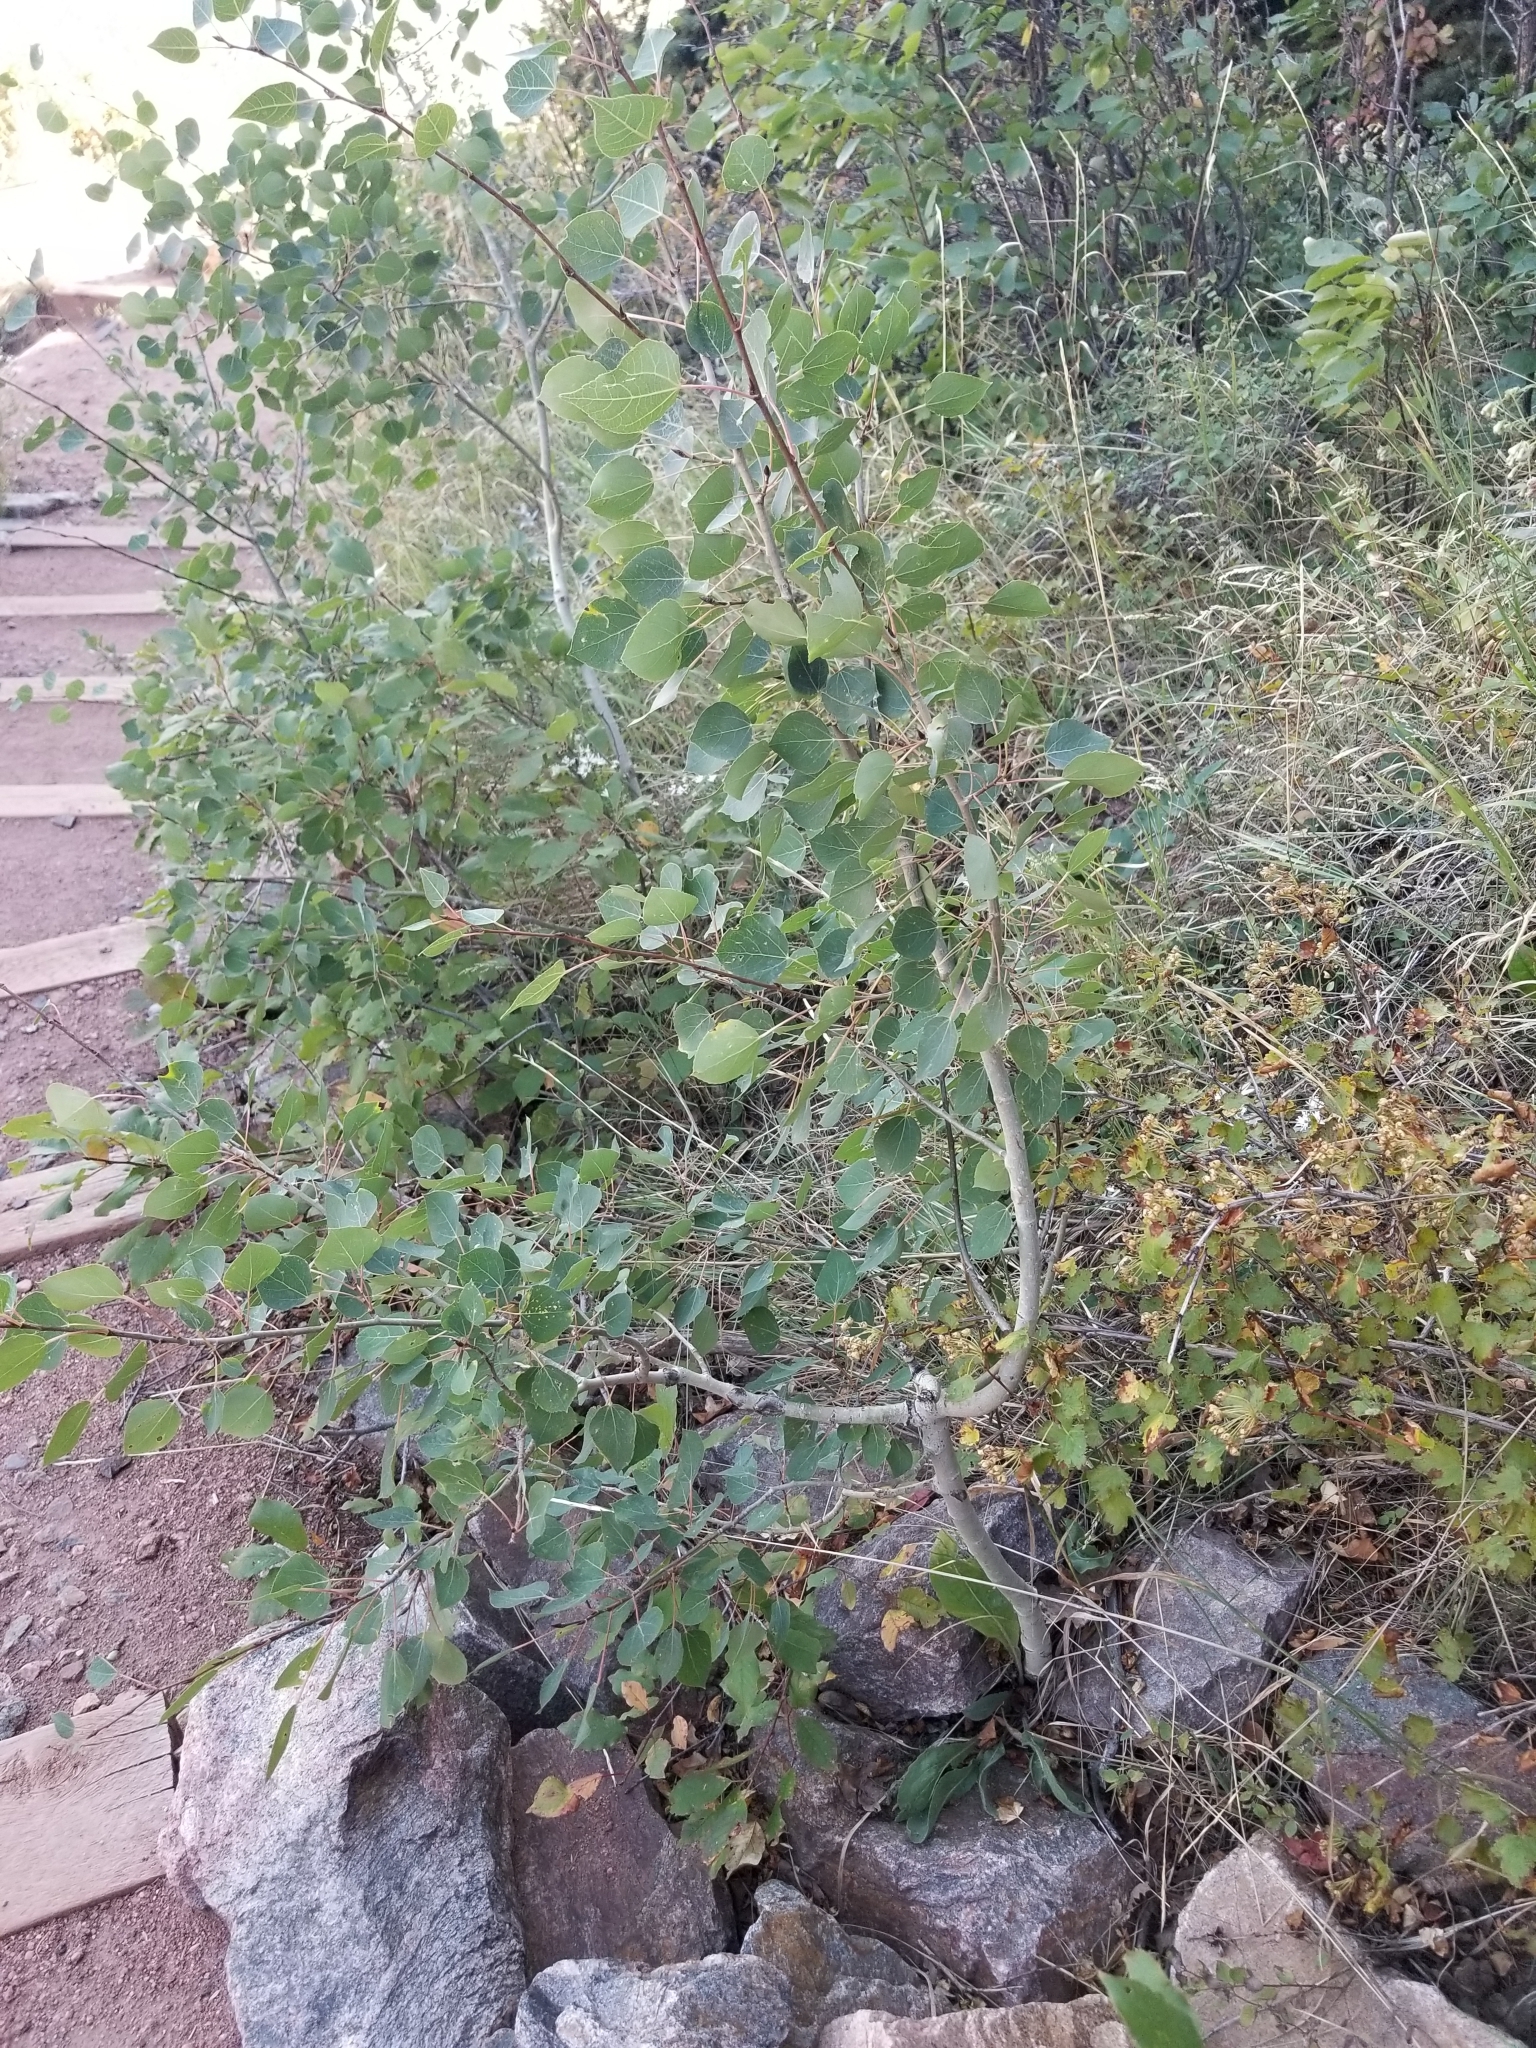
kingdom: Plantae
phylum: Tracheophyta
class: Magnoliopsida
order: Malpighiales
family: Salicaceae
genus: Populus
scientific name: Populus tremuloides
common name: Quaking aspen
